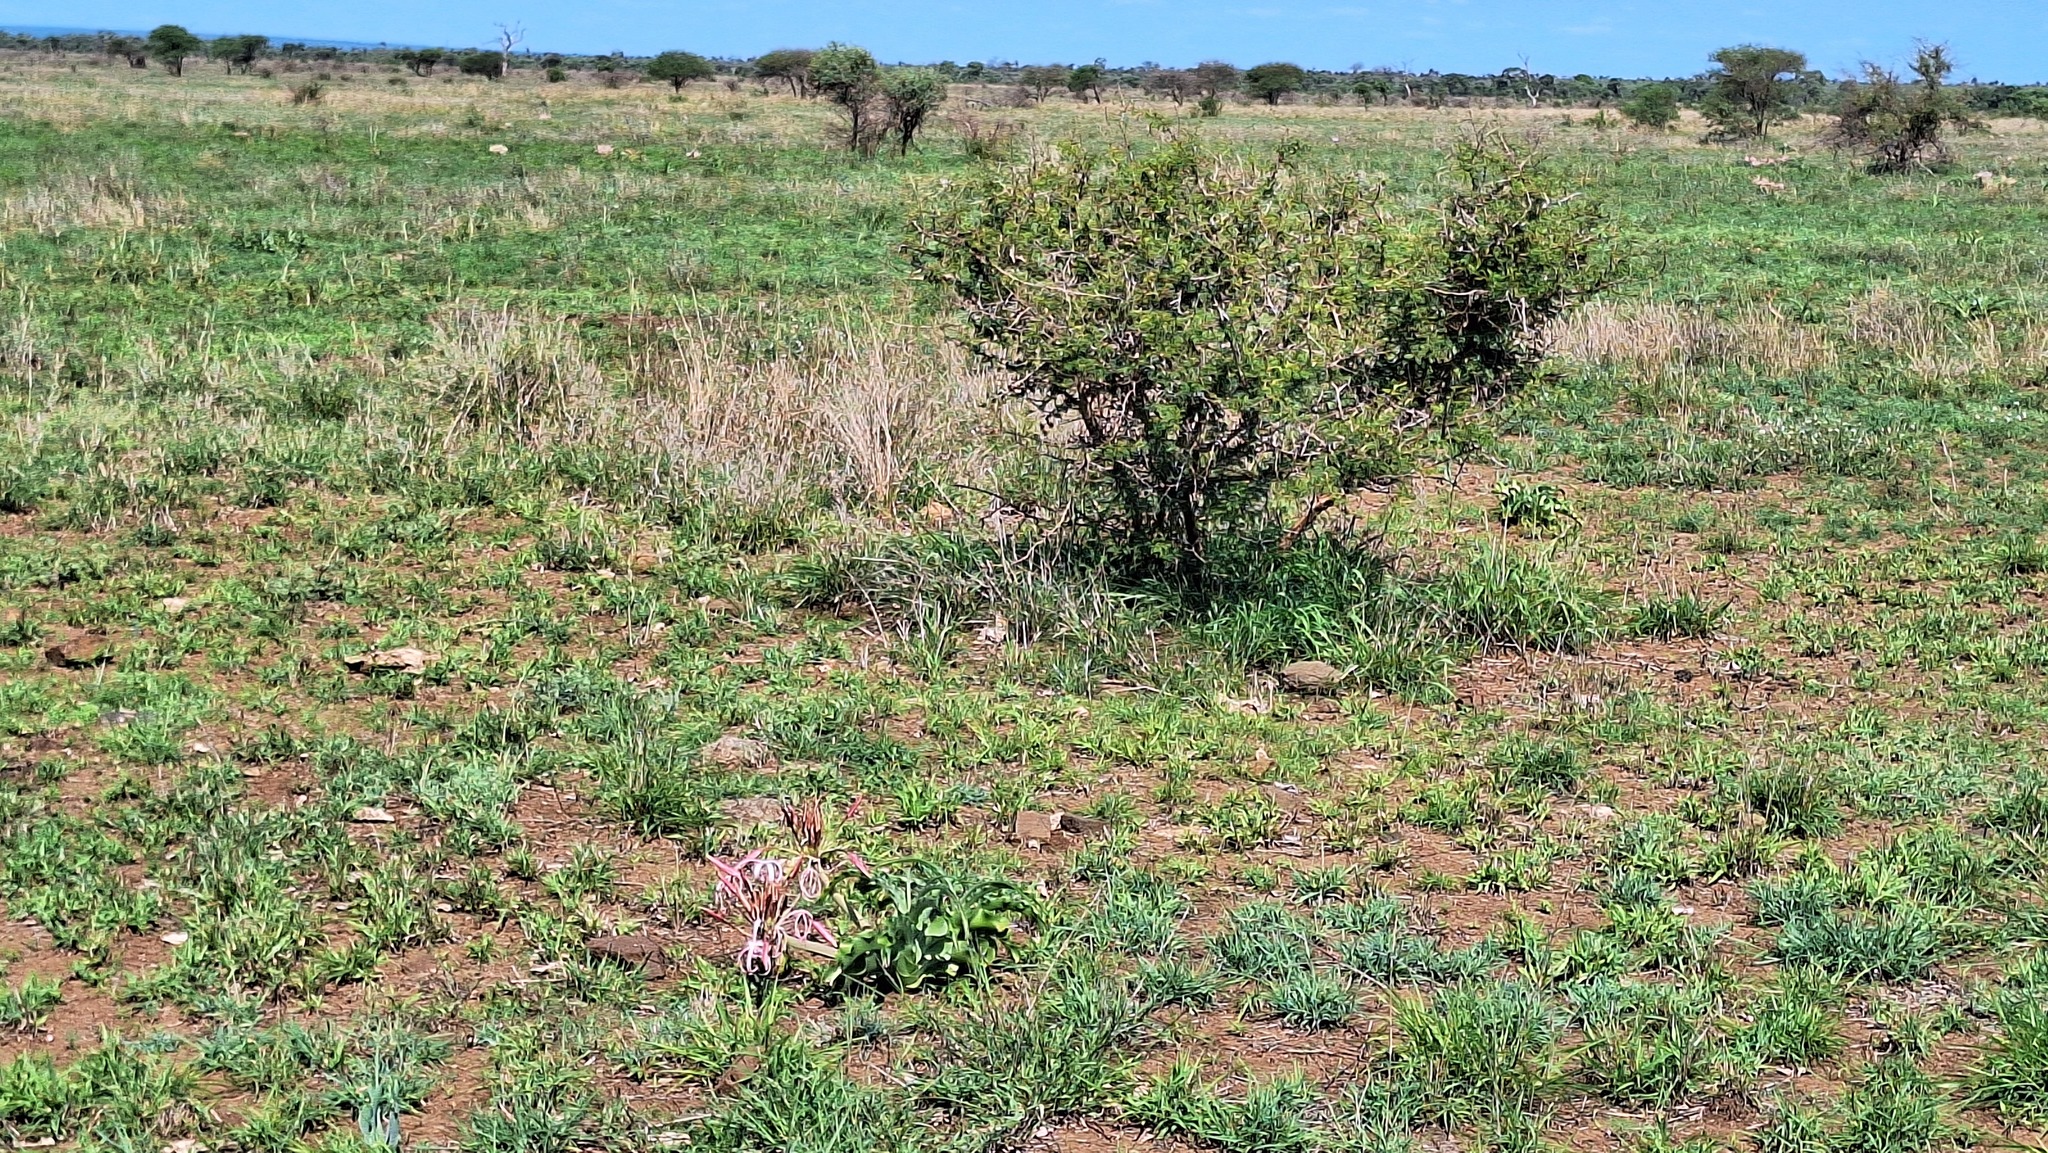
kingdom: Plantae
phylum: Tracheophyta
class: Liliopsida
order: Asparagales
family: Amaryllidaceae
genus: Crinum
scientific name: Crinum buphanoides
